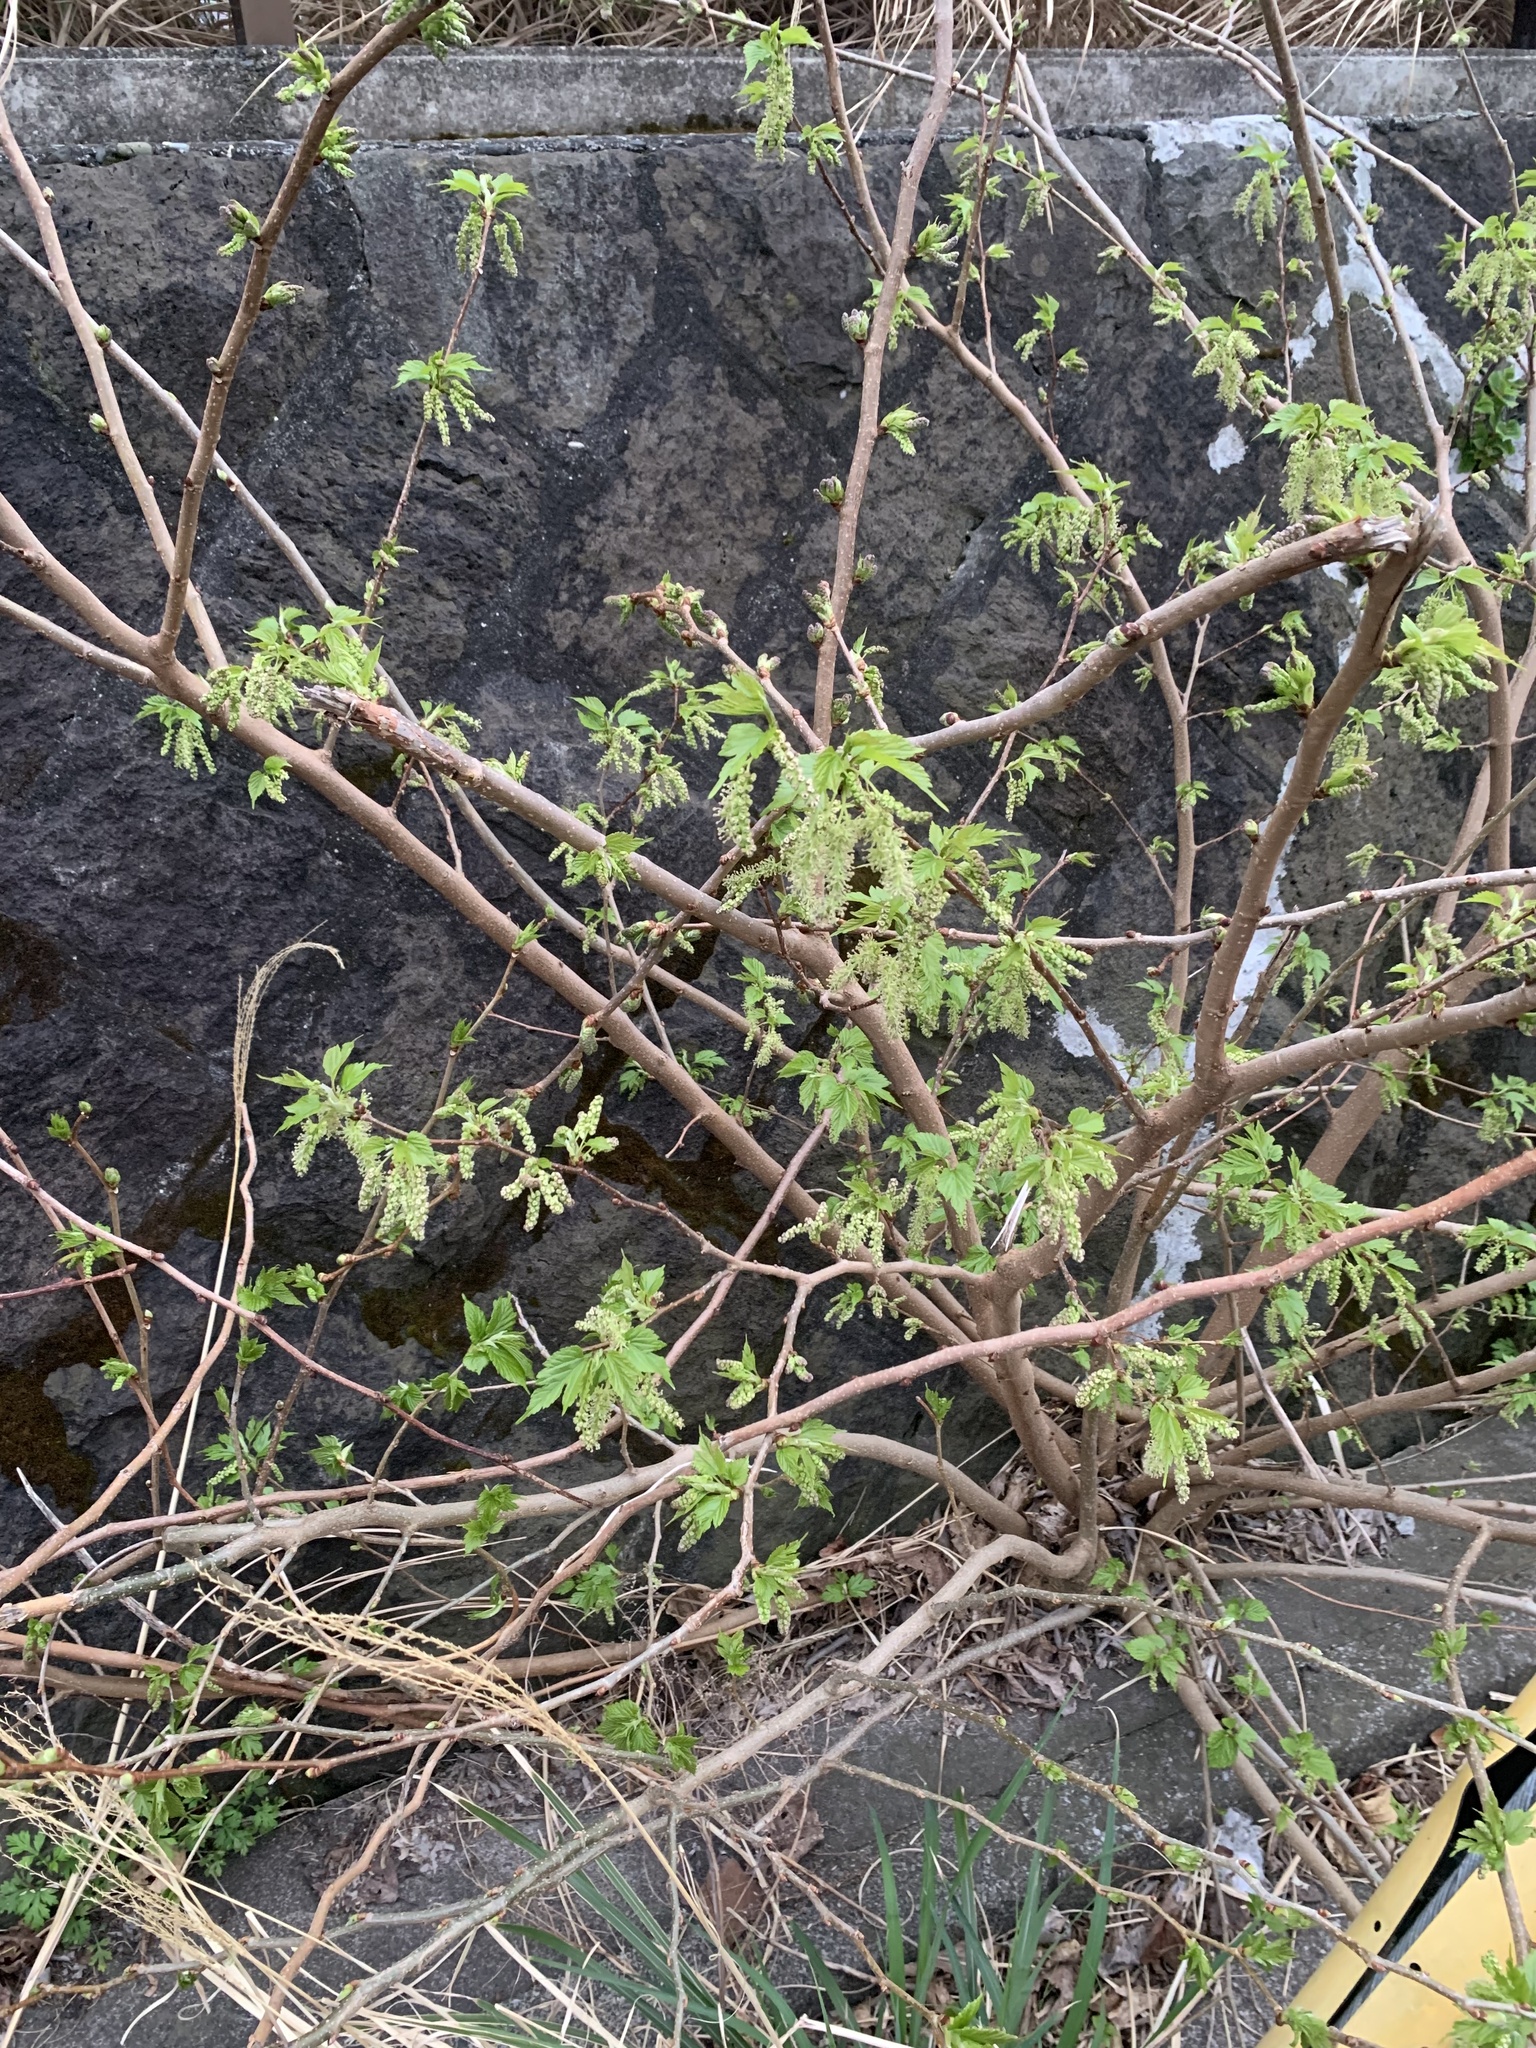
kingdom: Plantae
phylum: Tracheophyta
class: Magnoliopsida
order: Rosales
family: Moraceae
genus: Morus
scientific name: Morus indica
